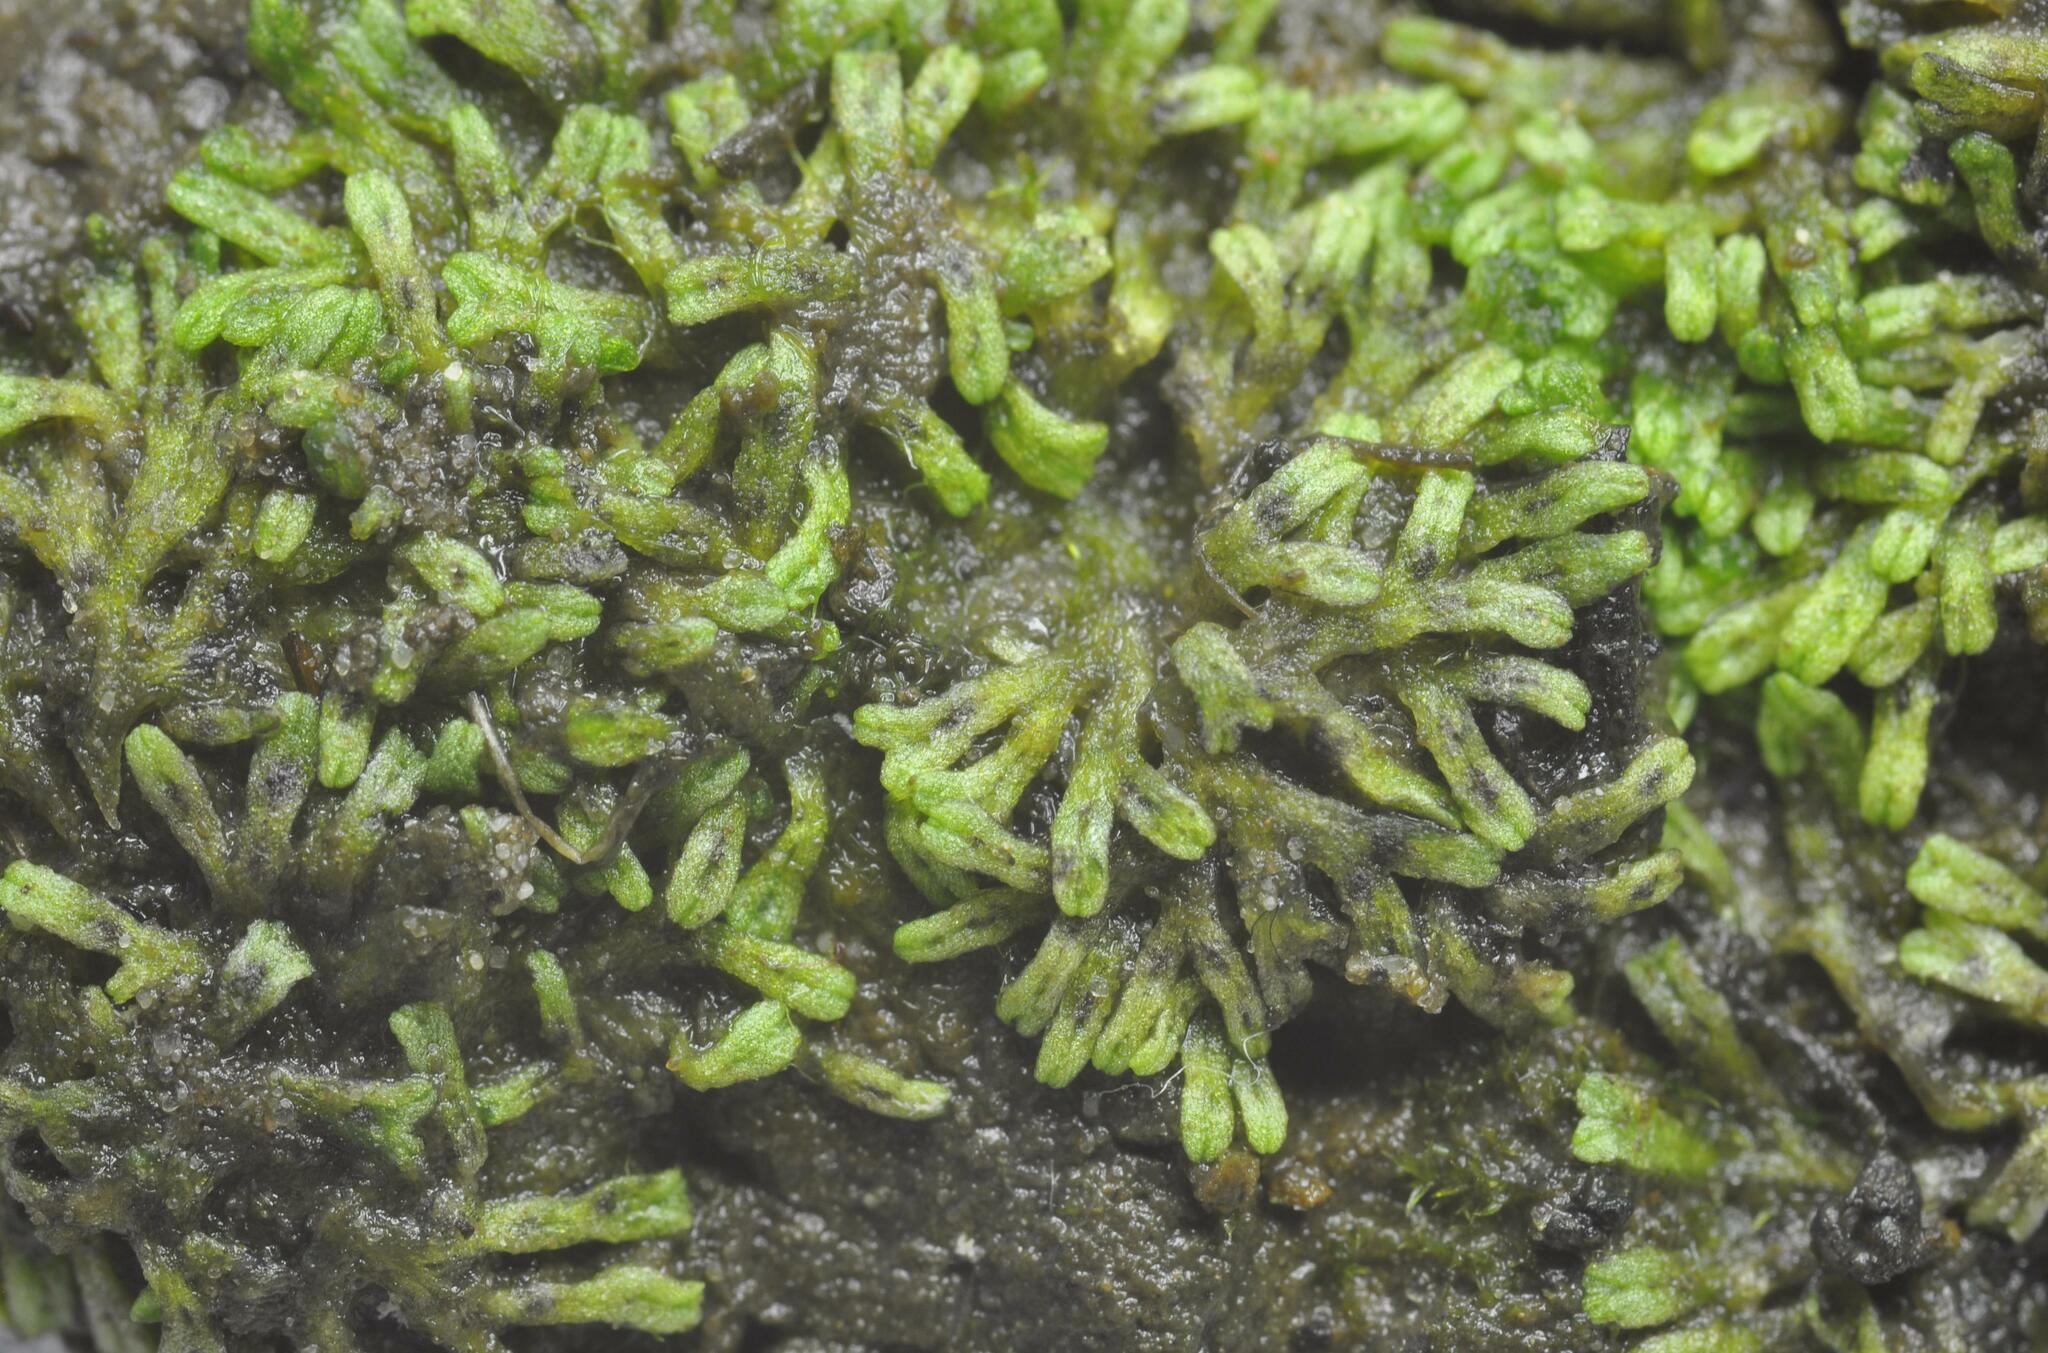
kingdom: Plantae
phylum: Marchantiophyta
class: Marchantiopsida
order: Marchantiales
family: Ricciaceae
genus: Riccia
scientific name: Riccia huebeneriana
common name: Violet crystalwort
